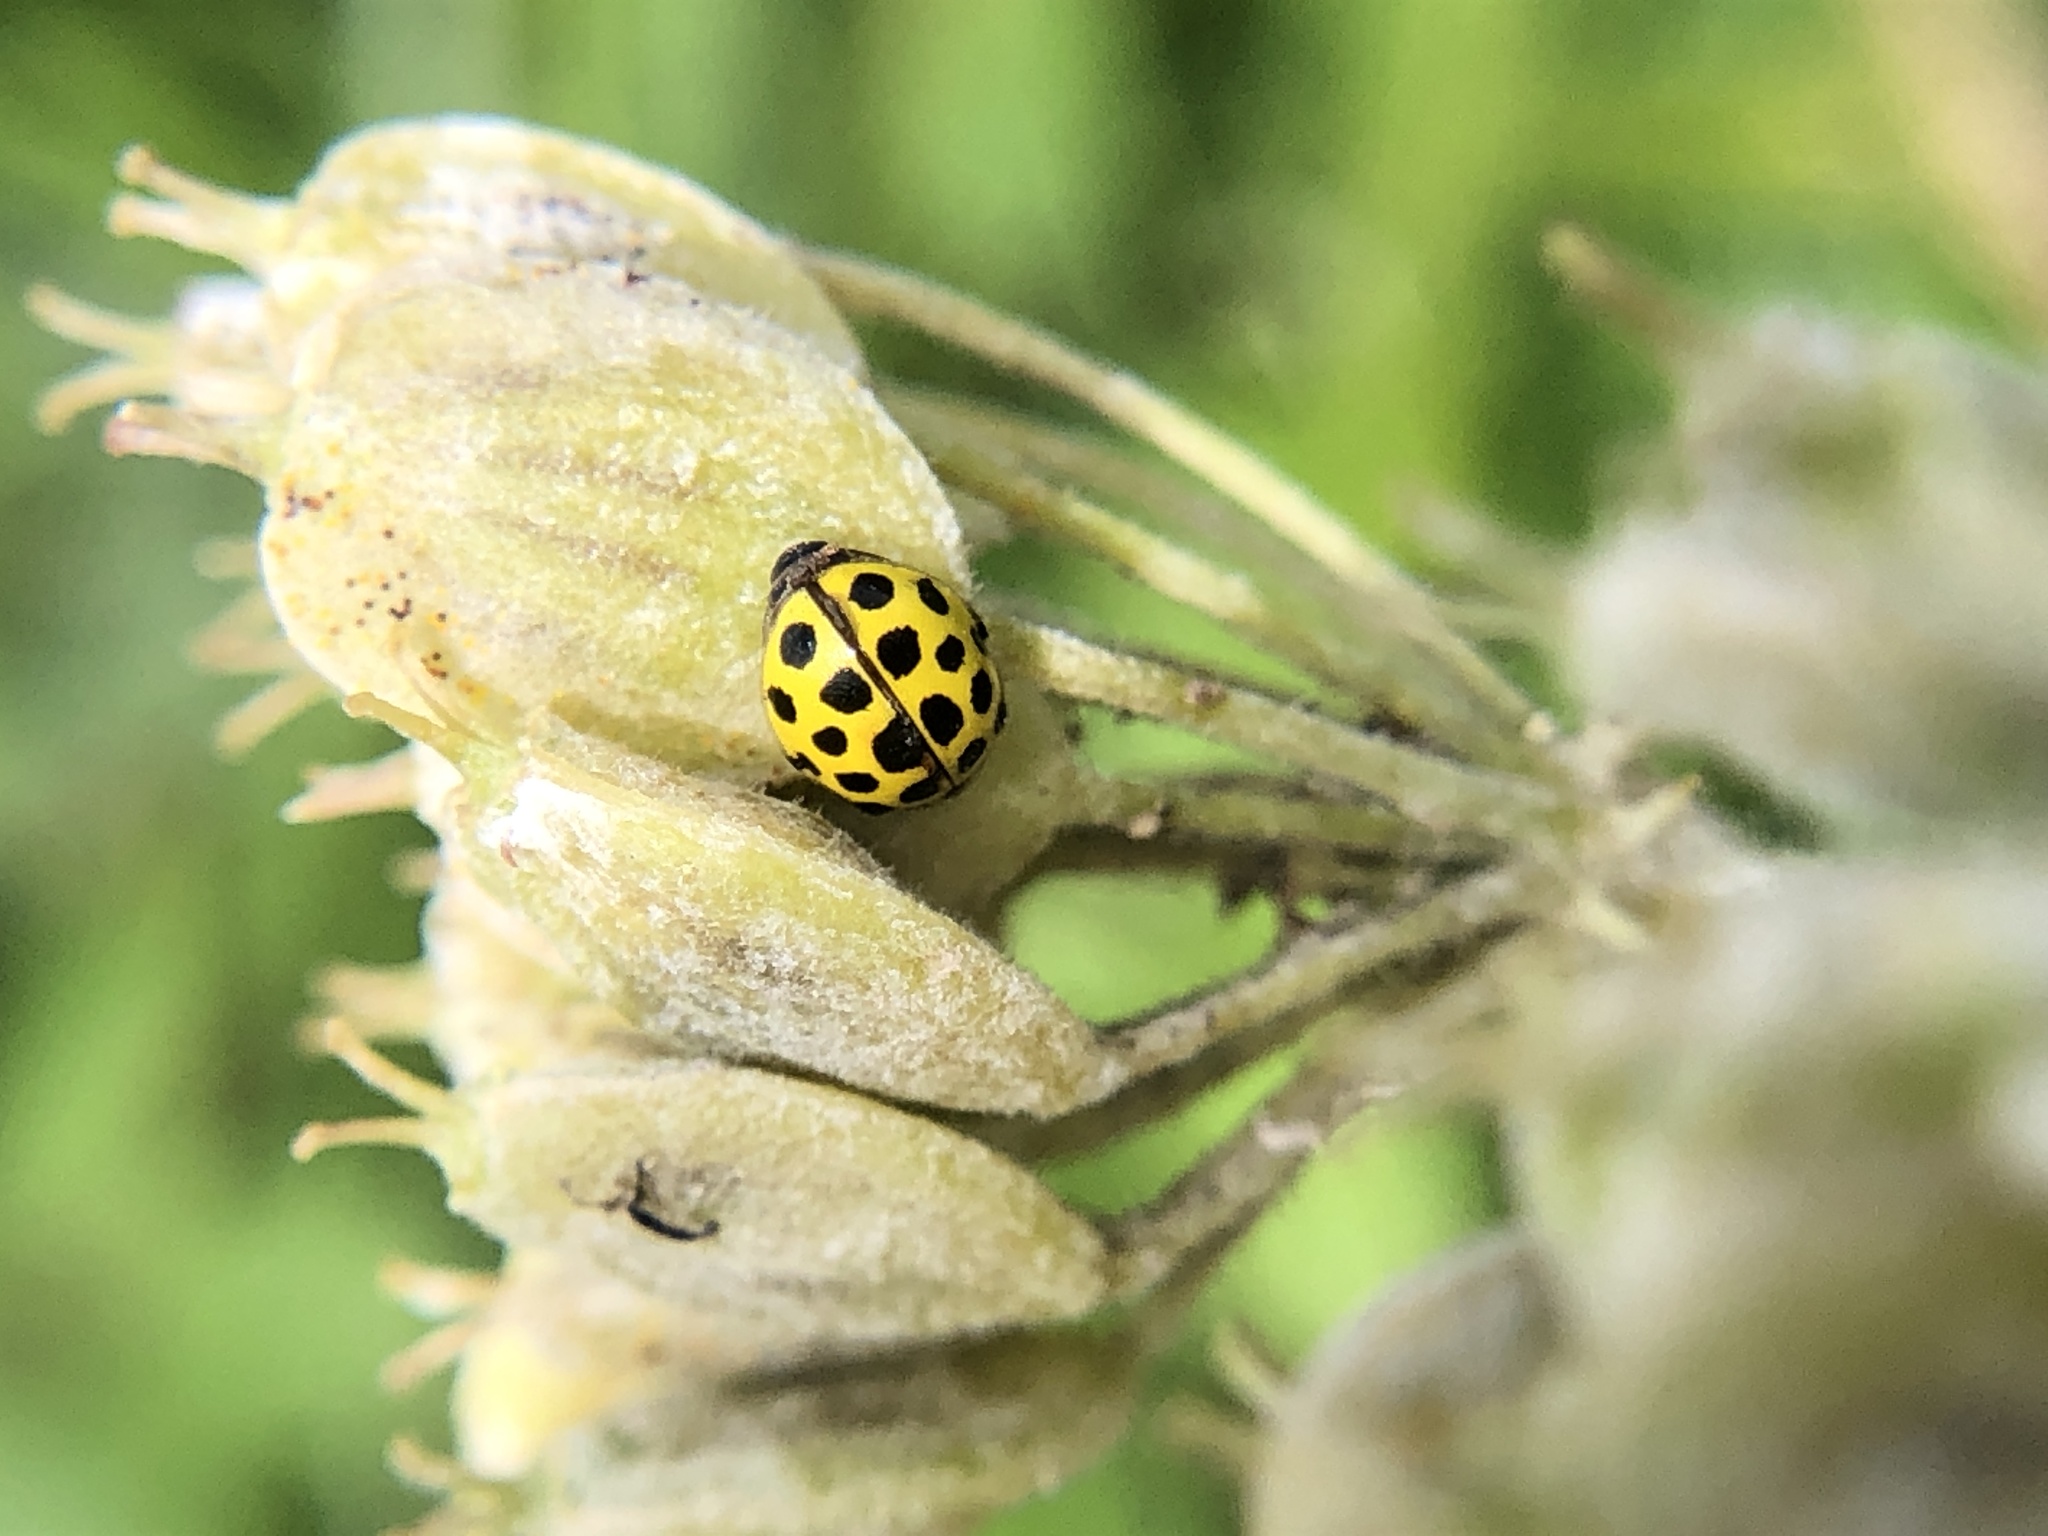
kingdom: Animalia
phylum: Arthropoda
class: Insecta
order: Coleoptera
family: Coccinellidae
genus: Psyllobora
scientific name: Psyllobora vigintiduopunctata
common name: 22-spot ladybird
